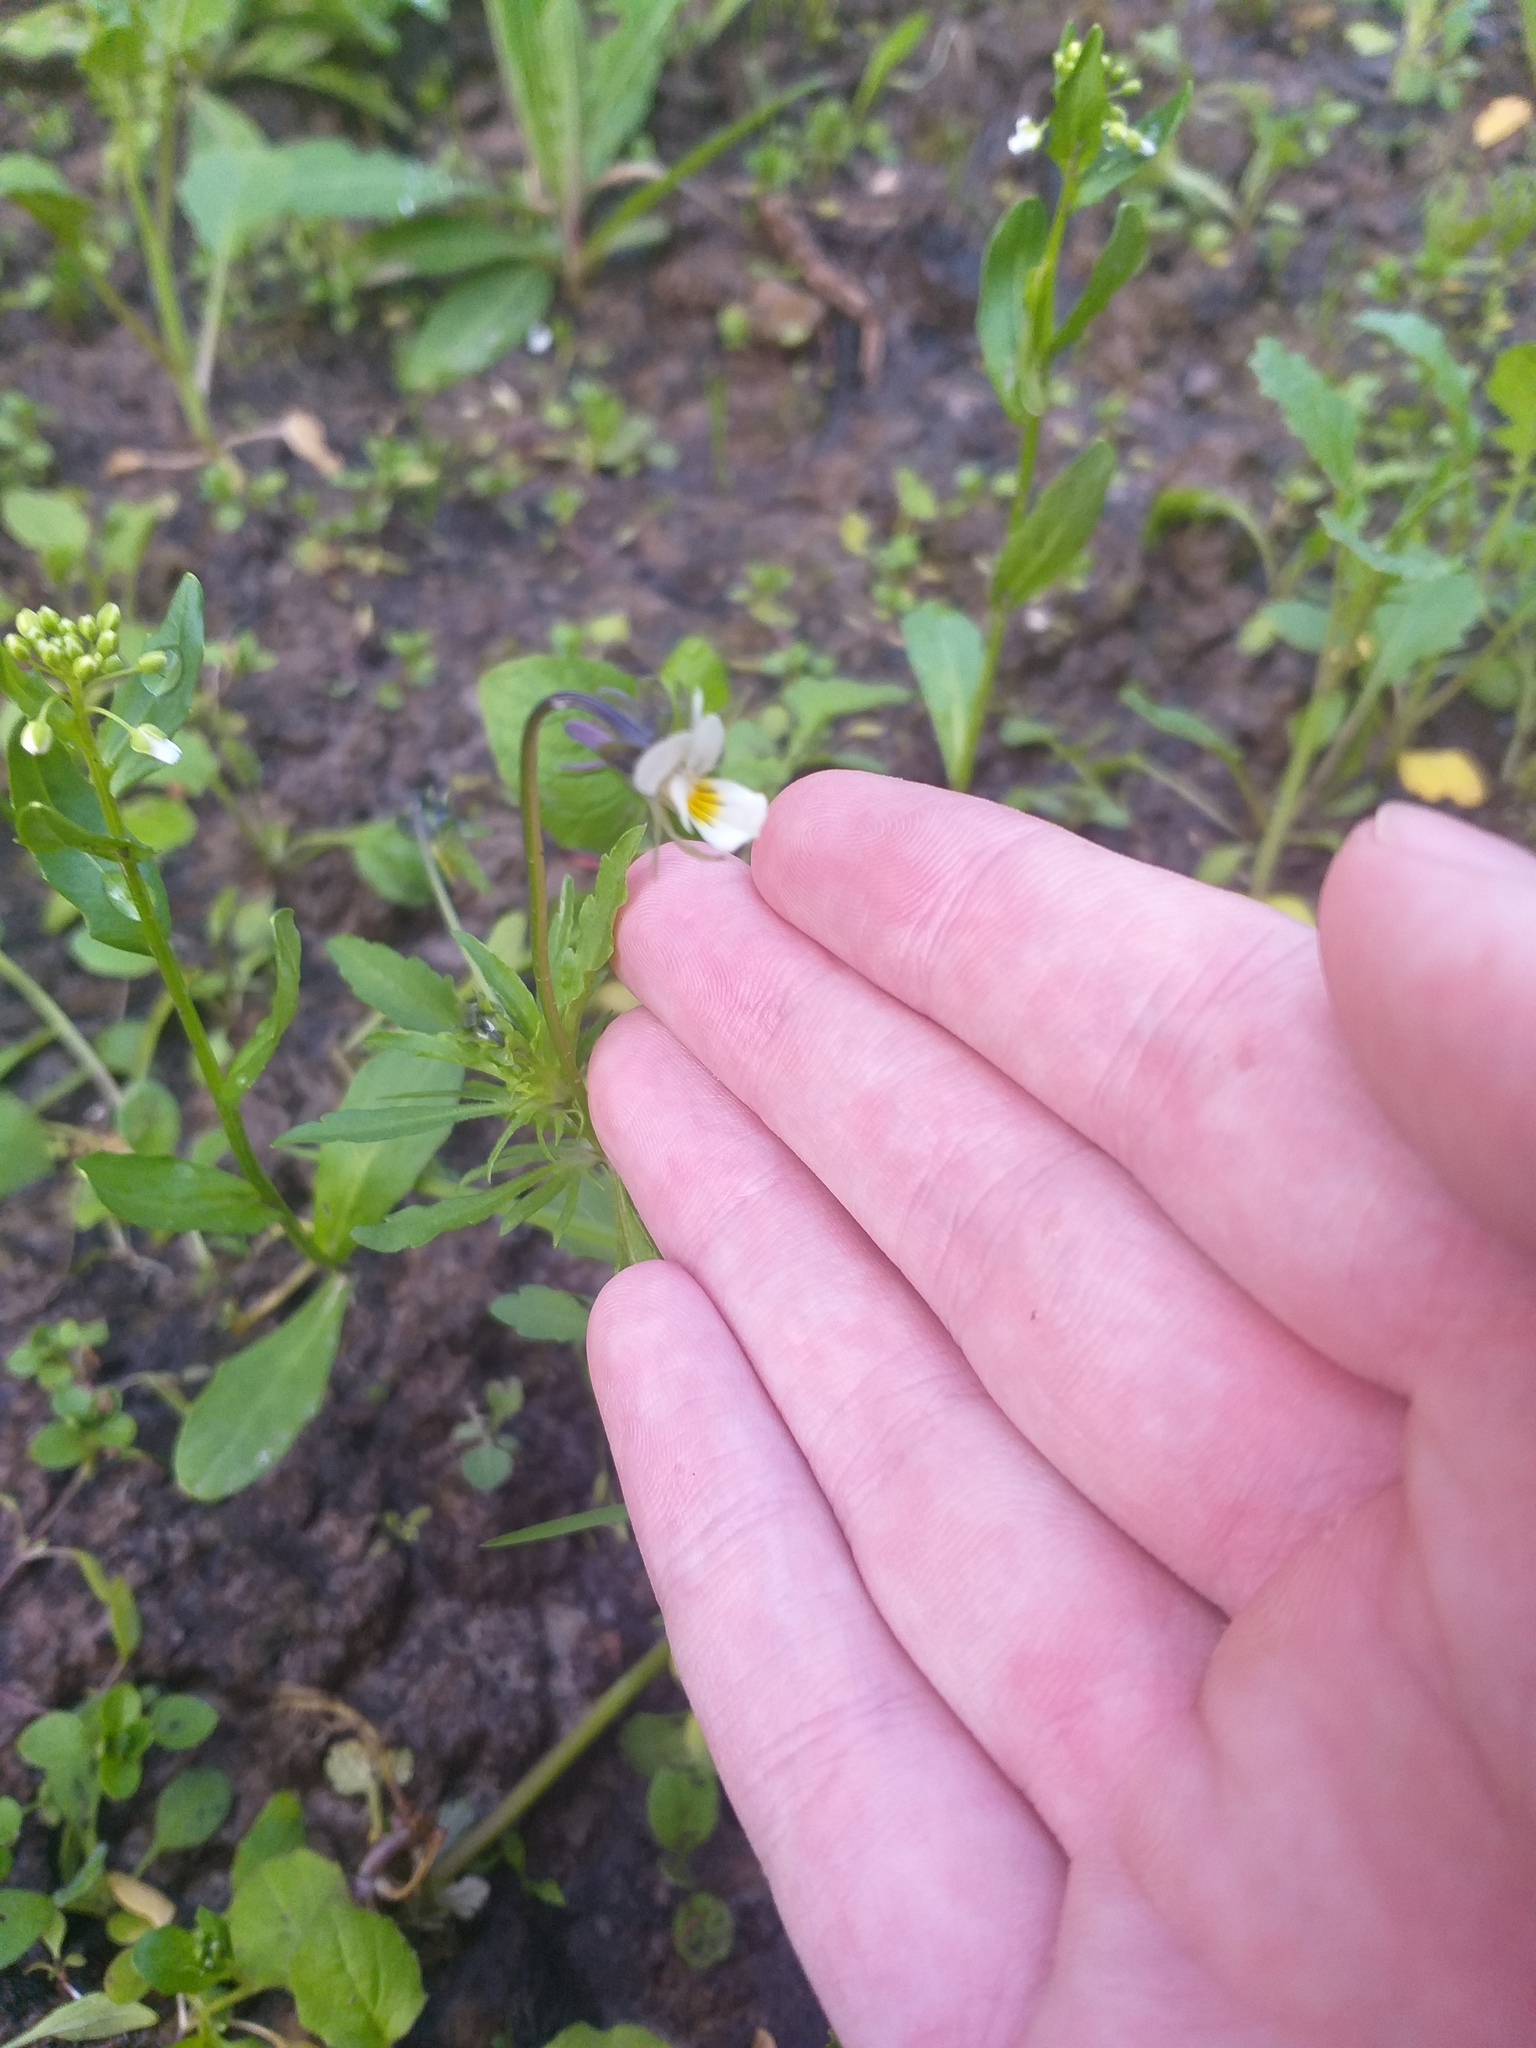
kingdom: Plantae
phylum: Tracheophyta
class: Magnoliopsida
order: Malpighiales
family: Violaceae
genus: Viola
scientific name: Viola arvensis
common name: Field pansy
